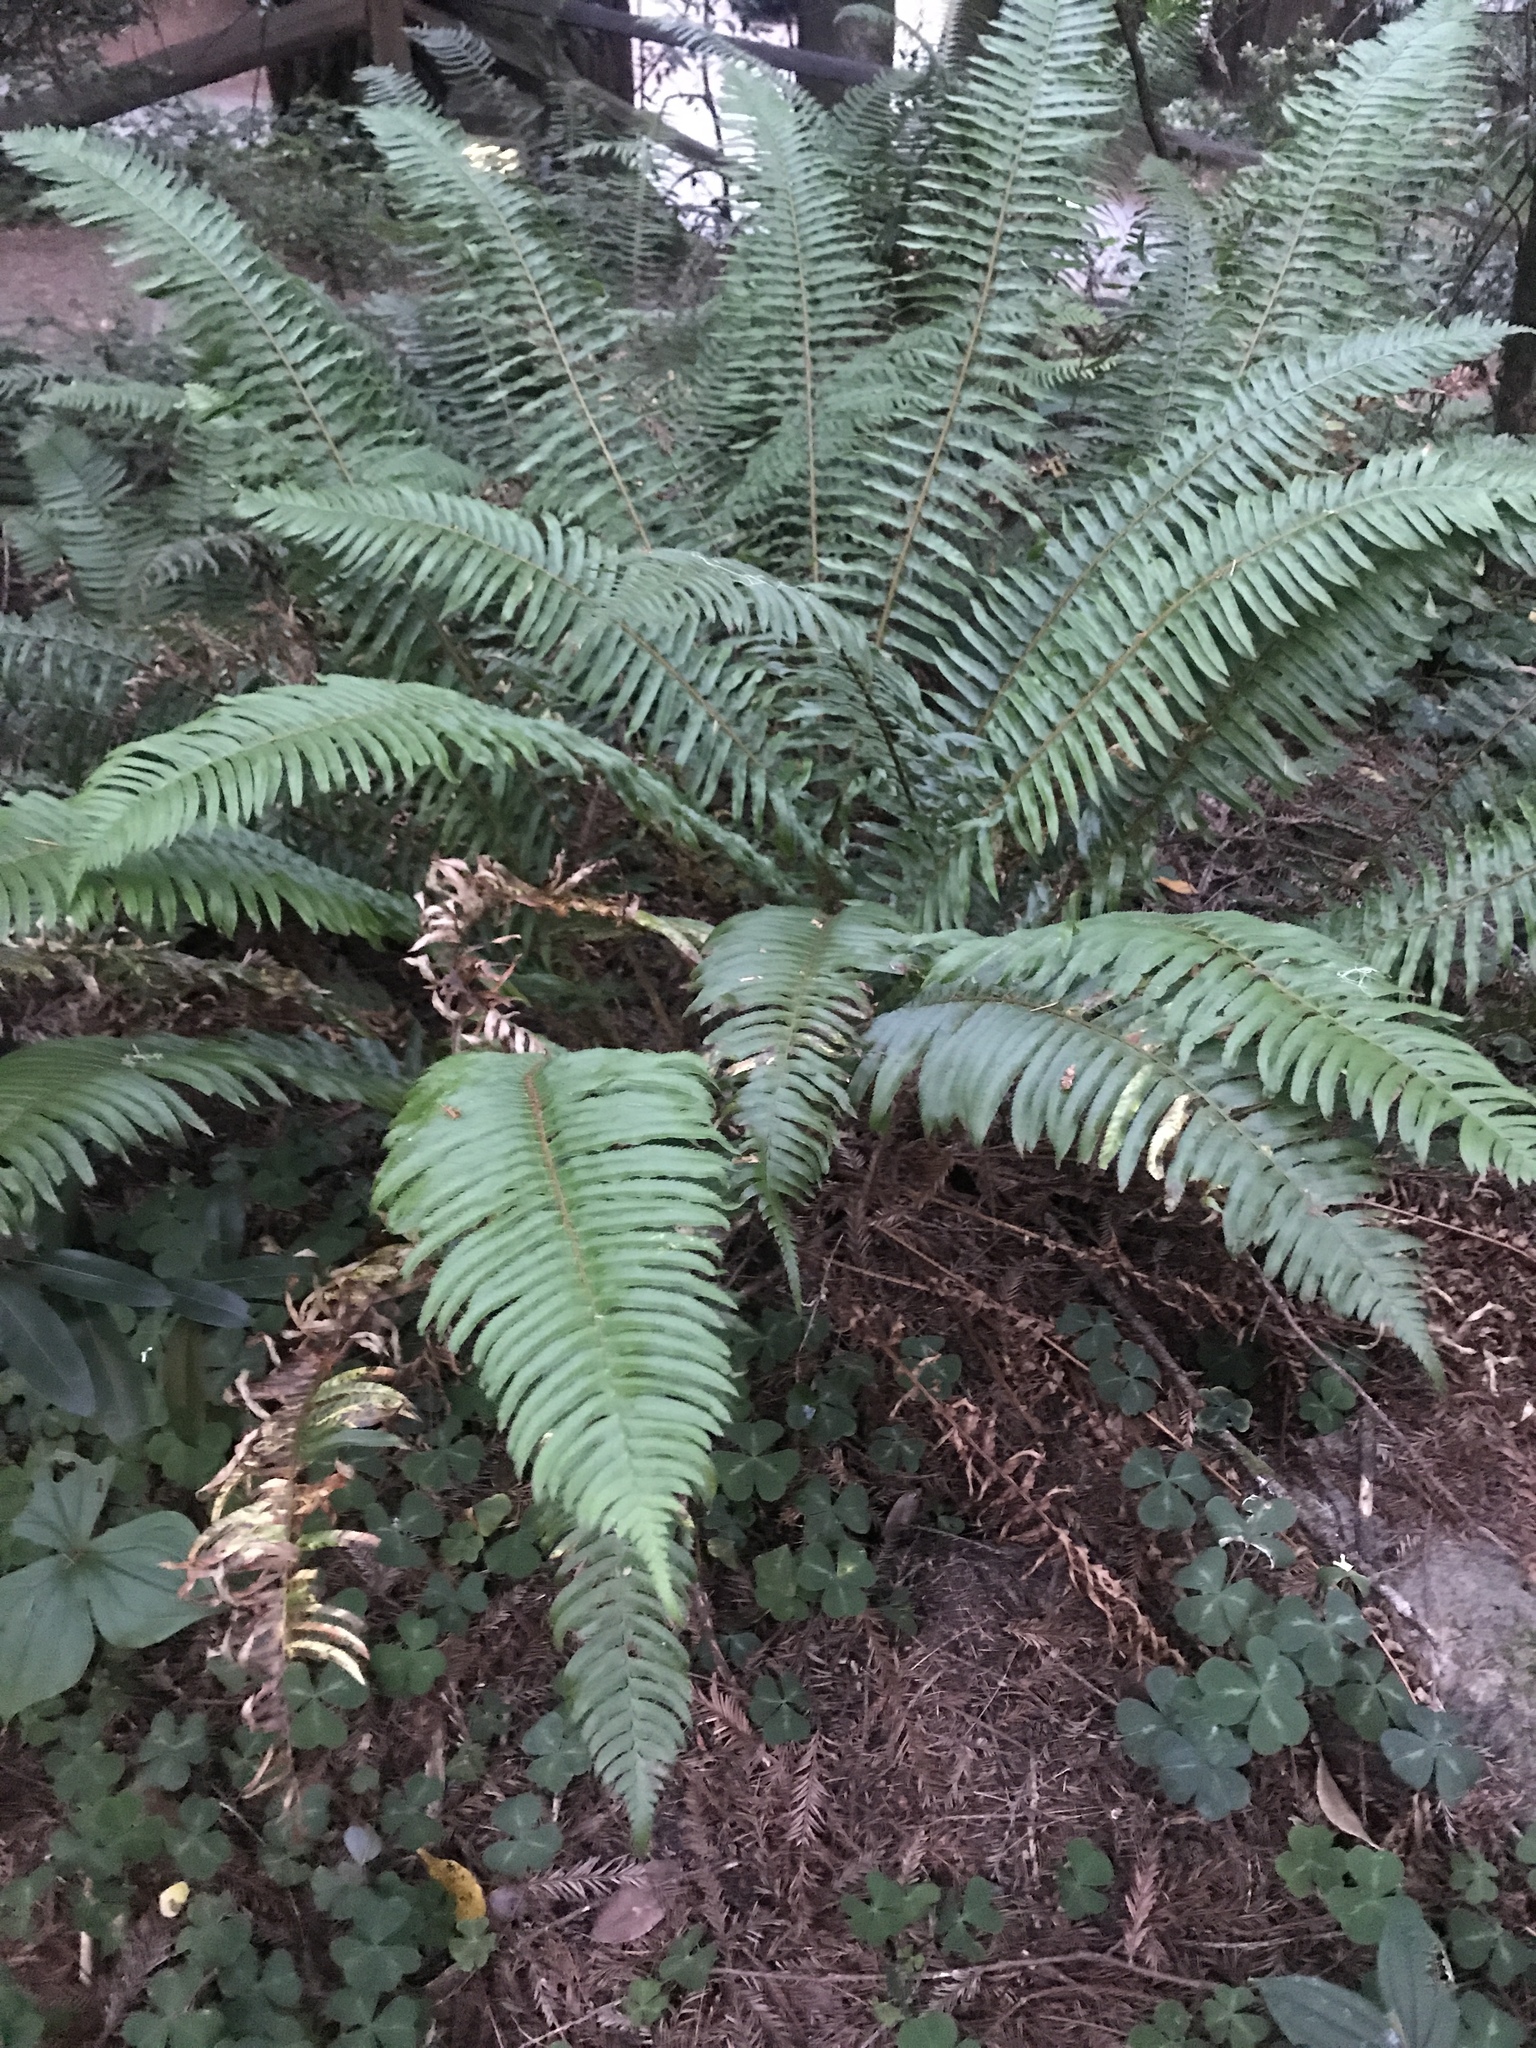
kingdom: Plantae
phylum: Tracheophyta
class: Polypodiopsida
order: Polypodiales
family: Dryopteridaceae
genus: Polystichum
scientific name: Polystichum munitum
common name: Western sword-fern
